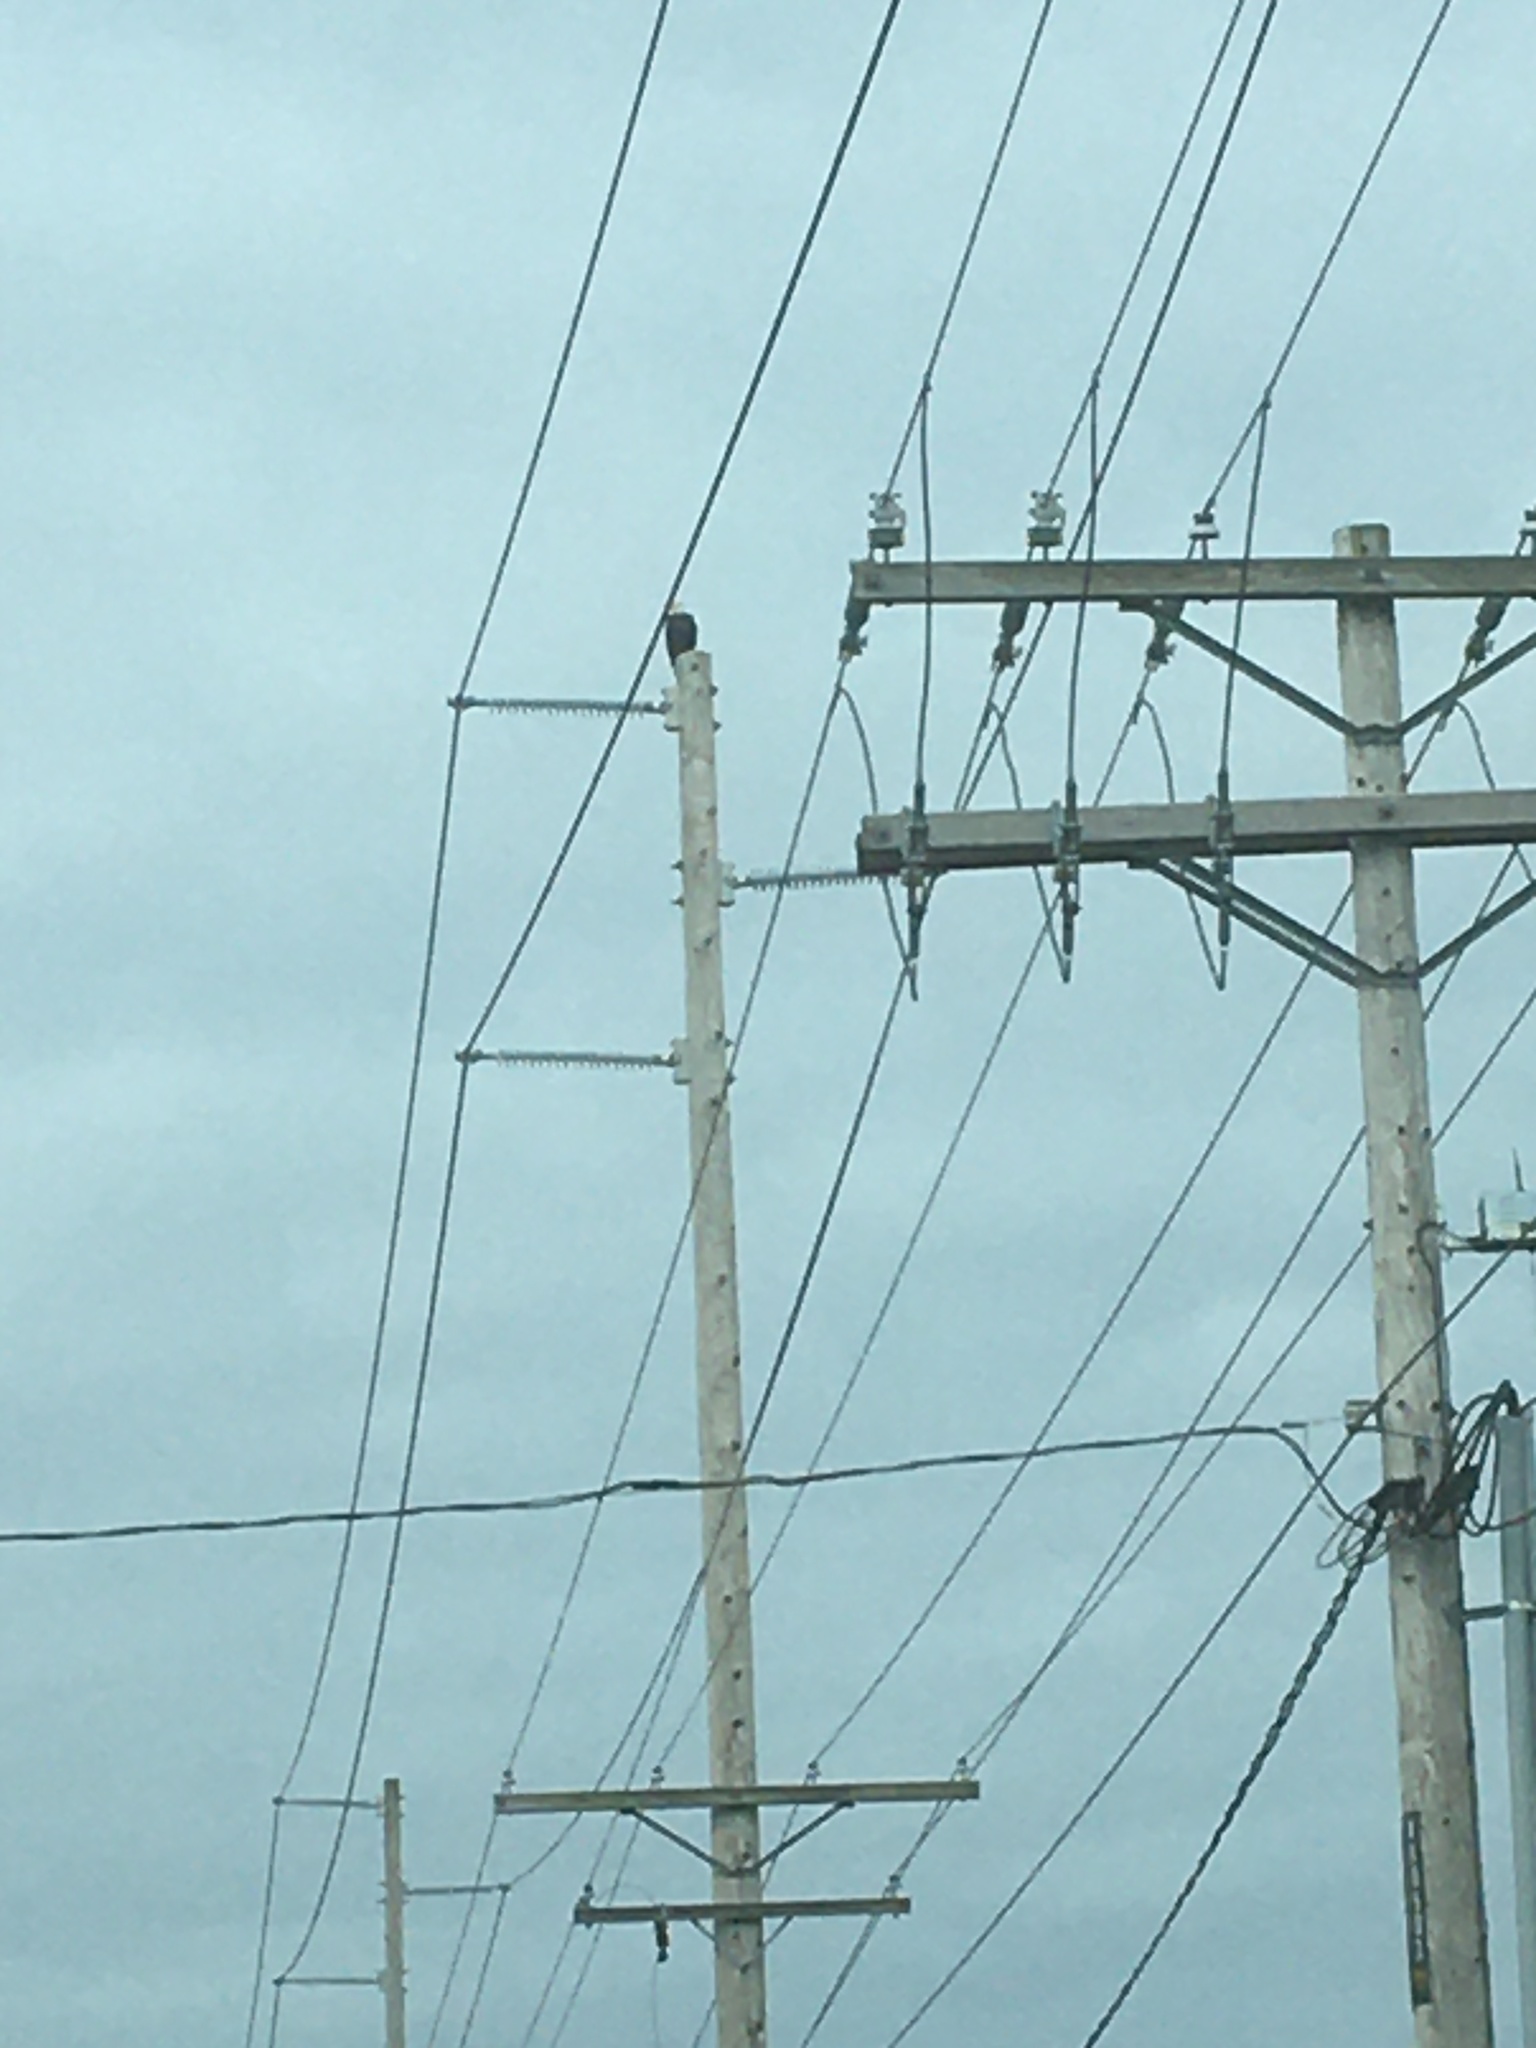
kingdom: Animalia
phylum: Chordata
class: Aves
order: Accipitriformes
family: Accipitridae
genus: Haliaeetus
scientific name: Haliaeetus leucocephalus
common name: Bald eagle
